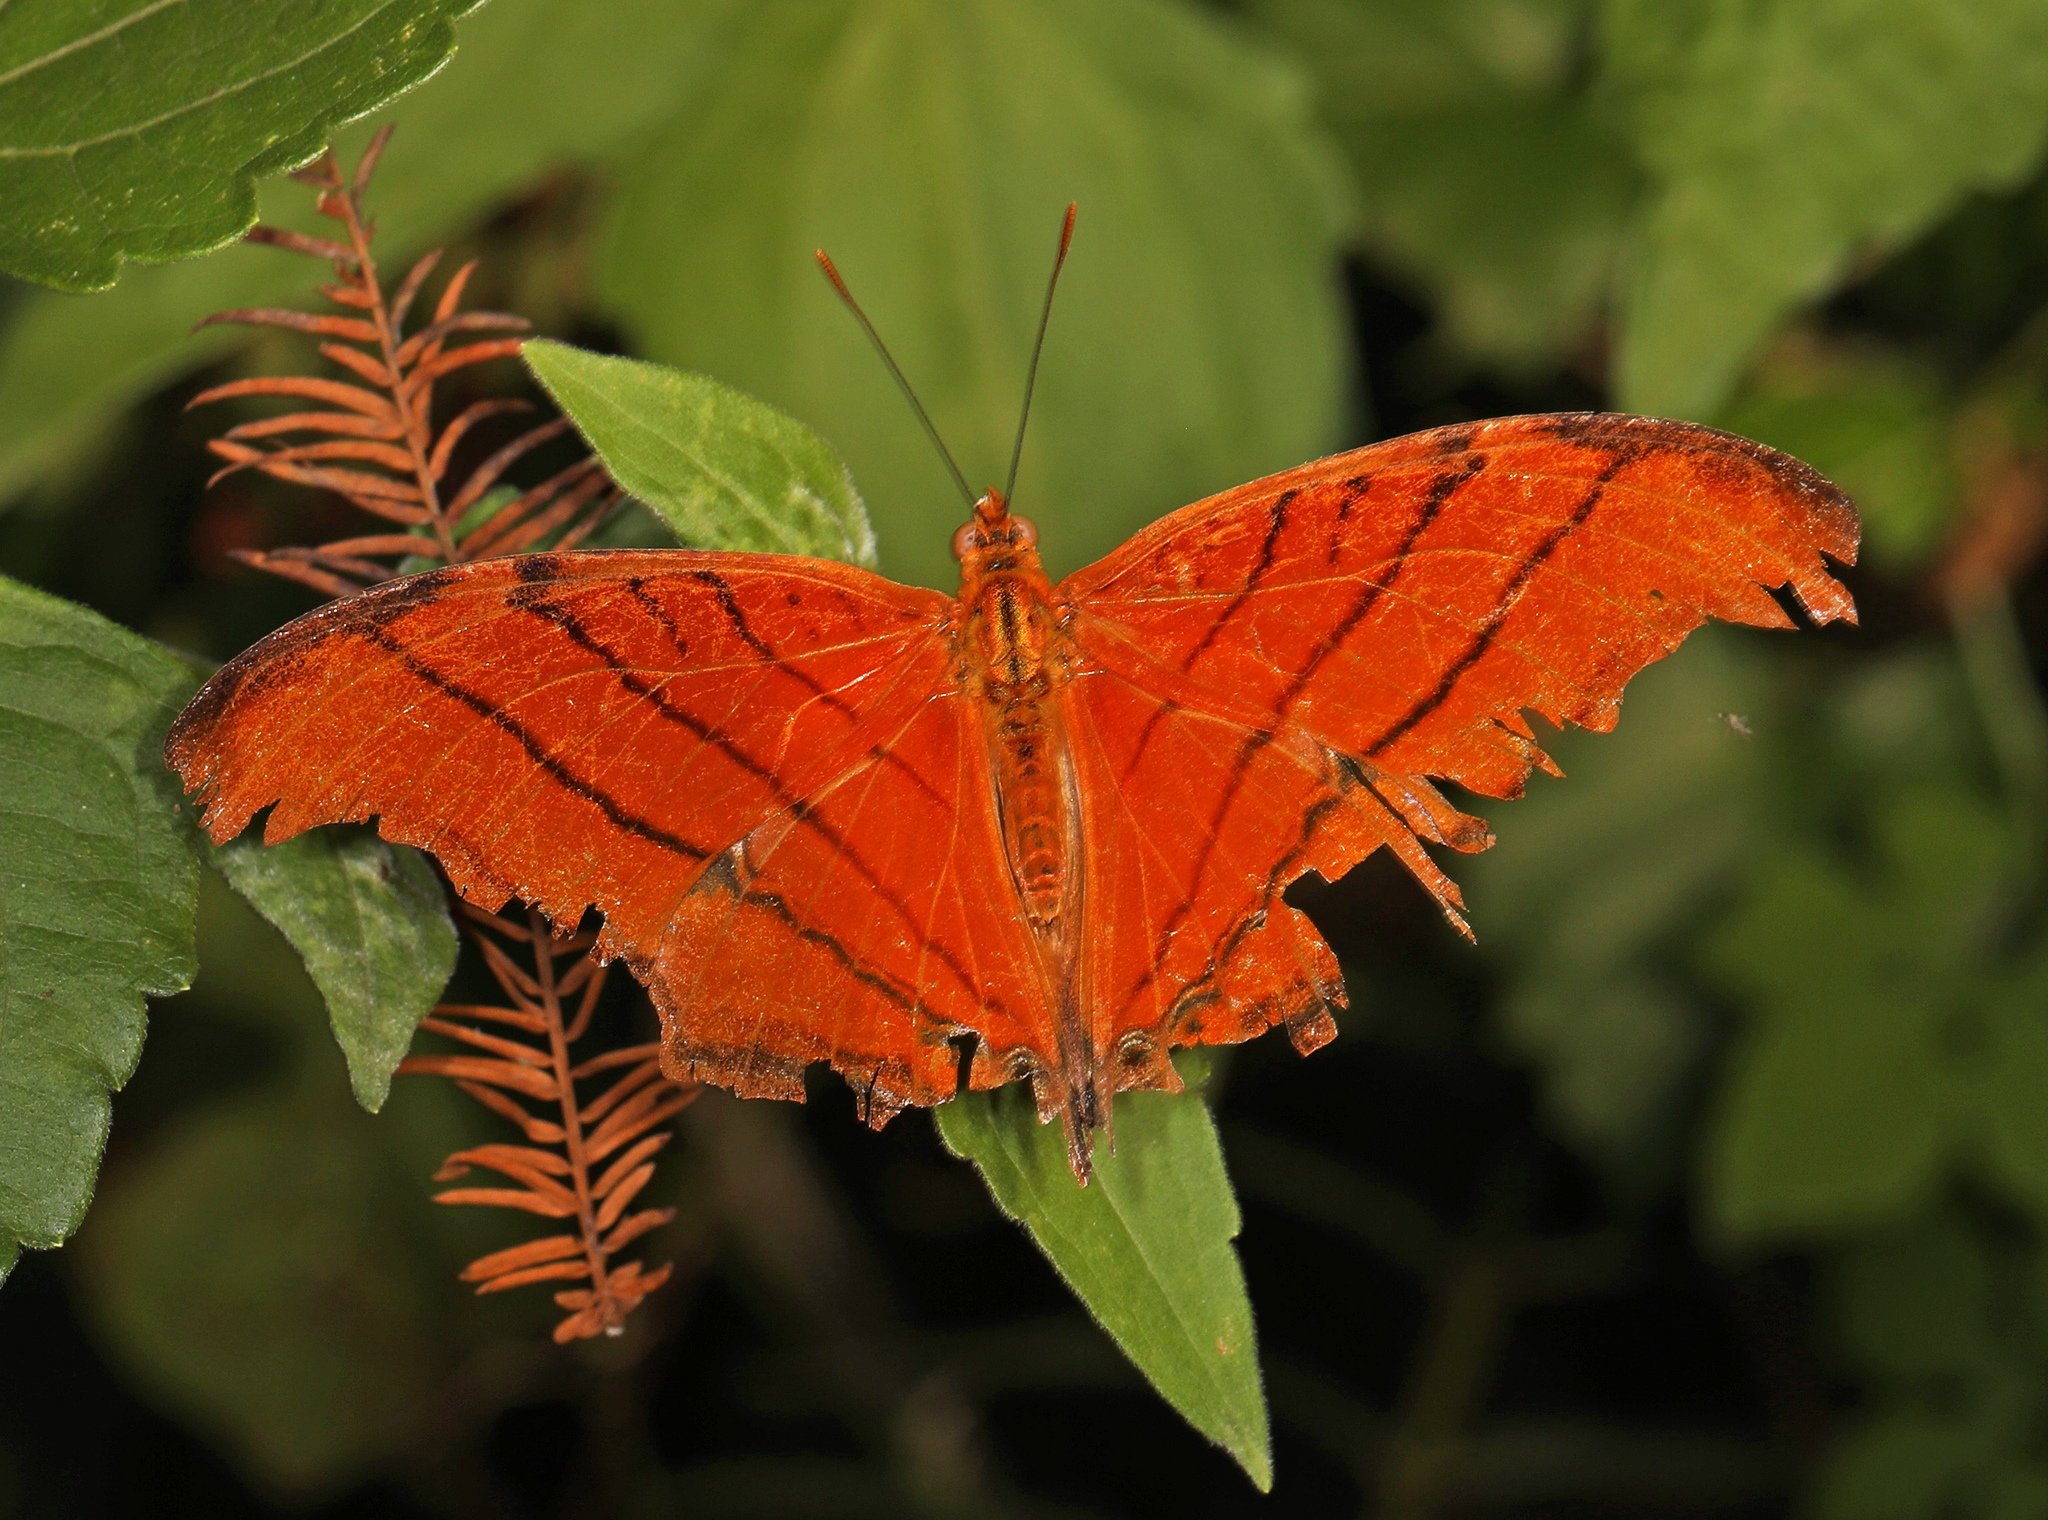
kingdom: Animalia
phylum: Arthropoda
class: Insecta
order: Lepidoptera
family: Nymphalidae
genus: Marpesia
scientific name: Marpesia petreus
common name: Red dagger wing
